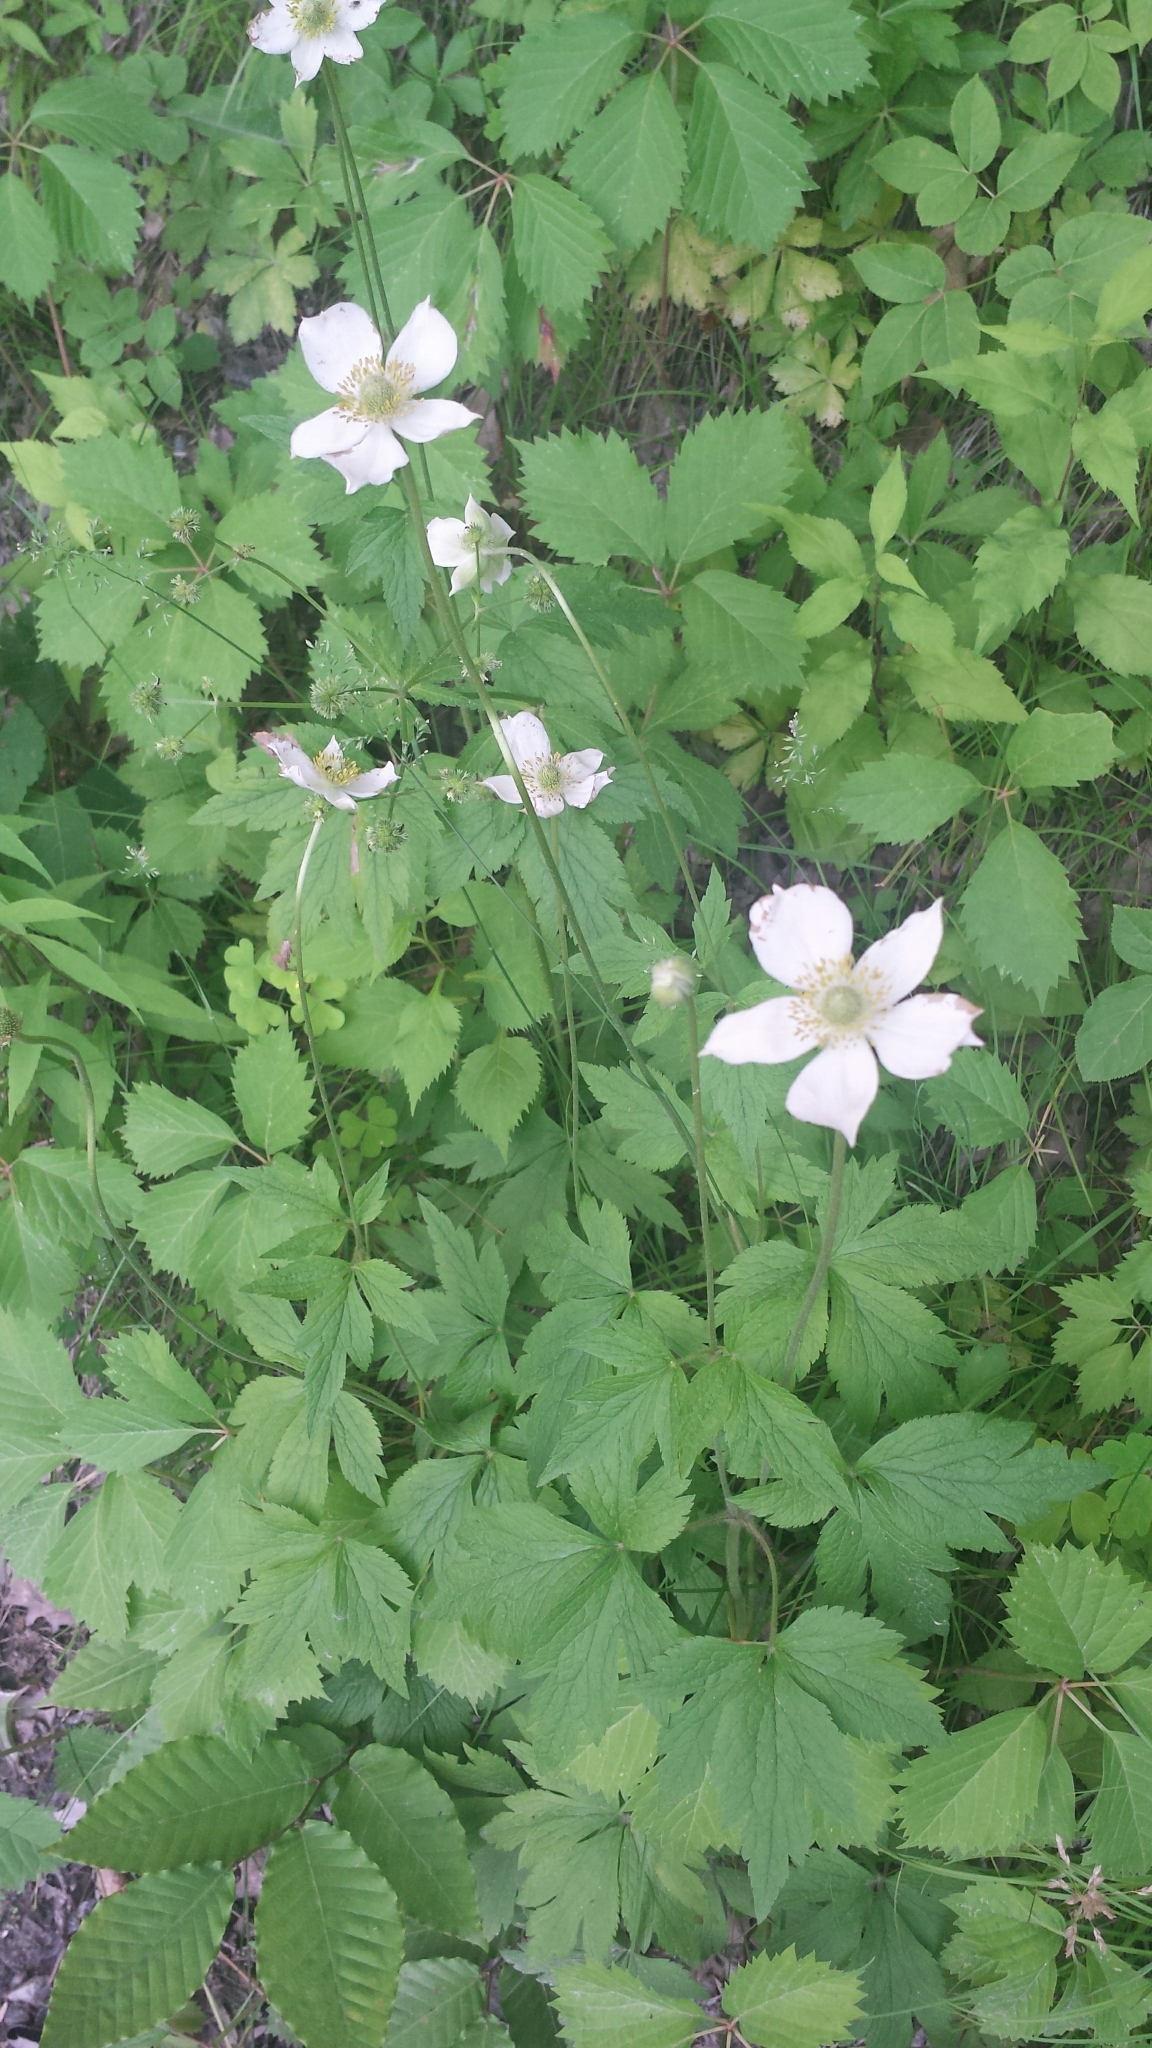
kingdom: Plantae
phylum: Tracheophyta
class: Magnoliopsida
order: Ranunculales
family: Ranunculaceae
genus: Anemone
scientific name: Anemone virginiana
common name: Tall anemone
